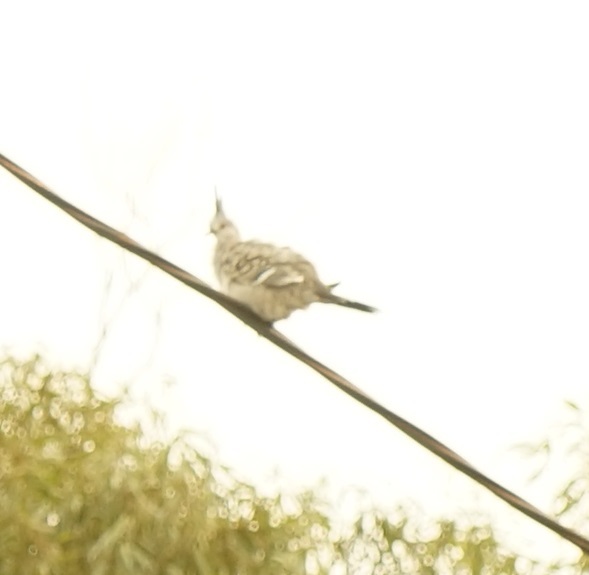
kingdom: Animalia
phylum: Chordata
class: Aves
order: Columbiformes
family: Columbidae
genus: Ocyphaps
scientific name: Ocyphaps lophotes
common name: Crested pigeon
